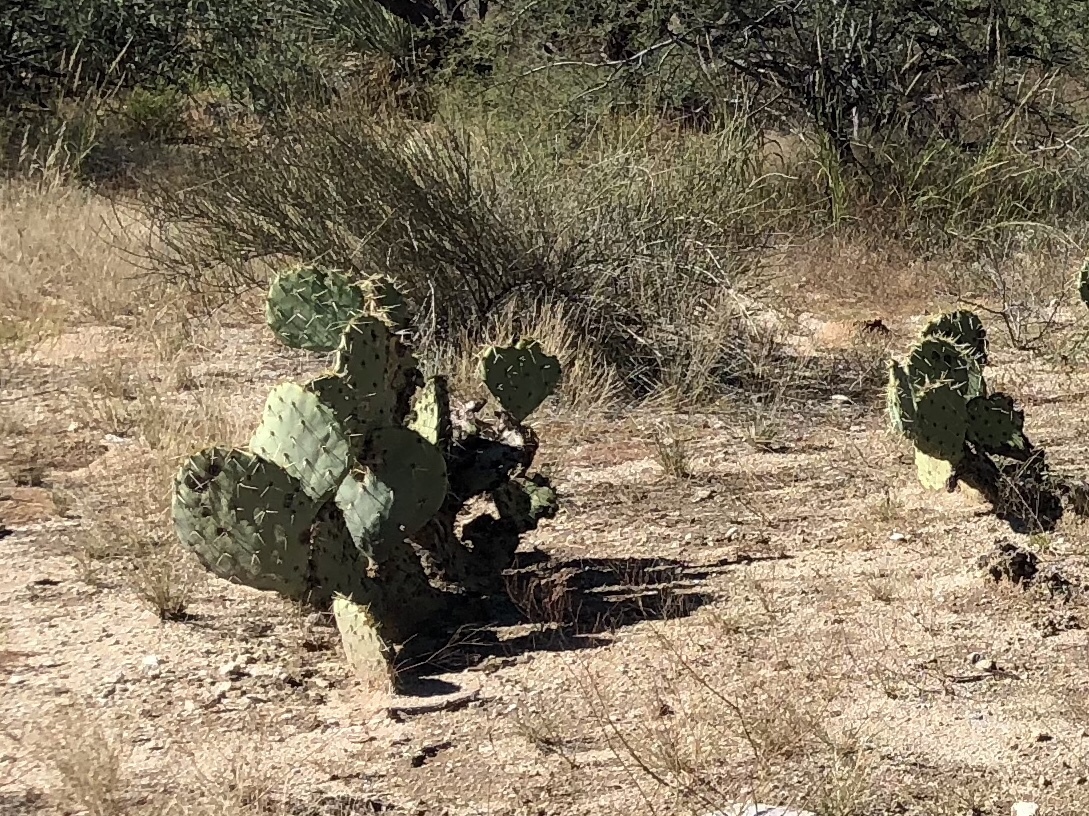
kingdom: Plantae
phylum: Tracheophyta
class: Magnoliopsida
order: Caryophyllales
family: Cactaceae
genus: Opuntia
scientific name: Opuntia engelmannii
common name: Cactus-apple
